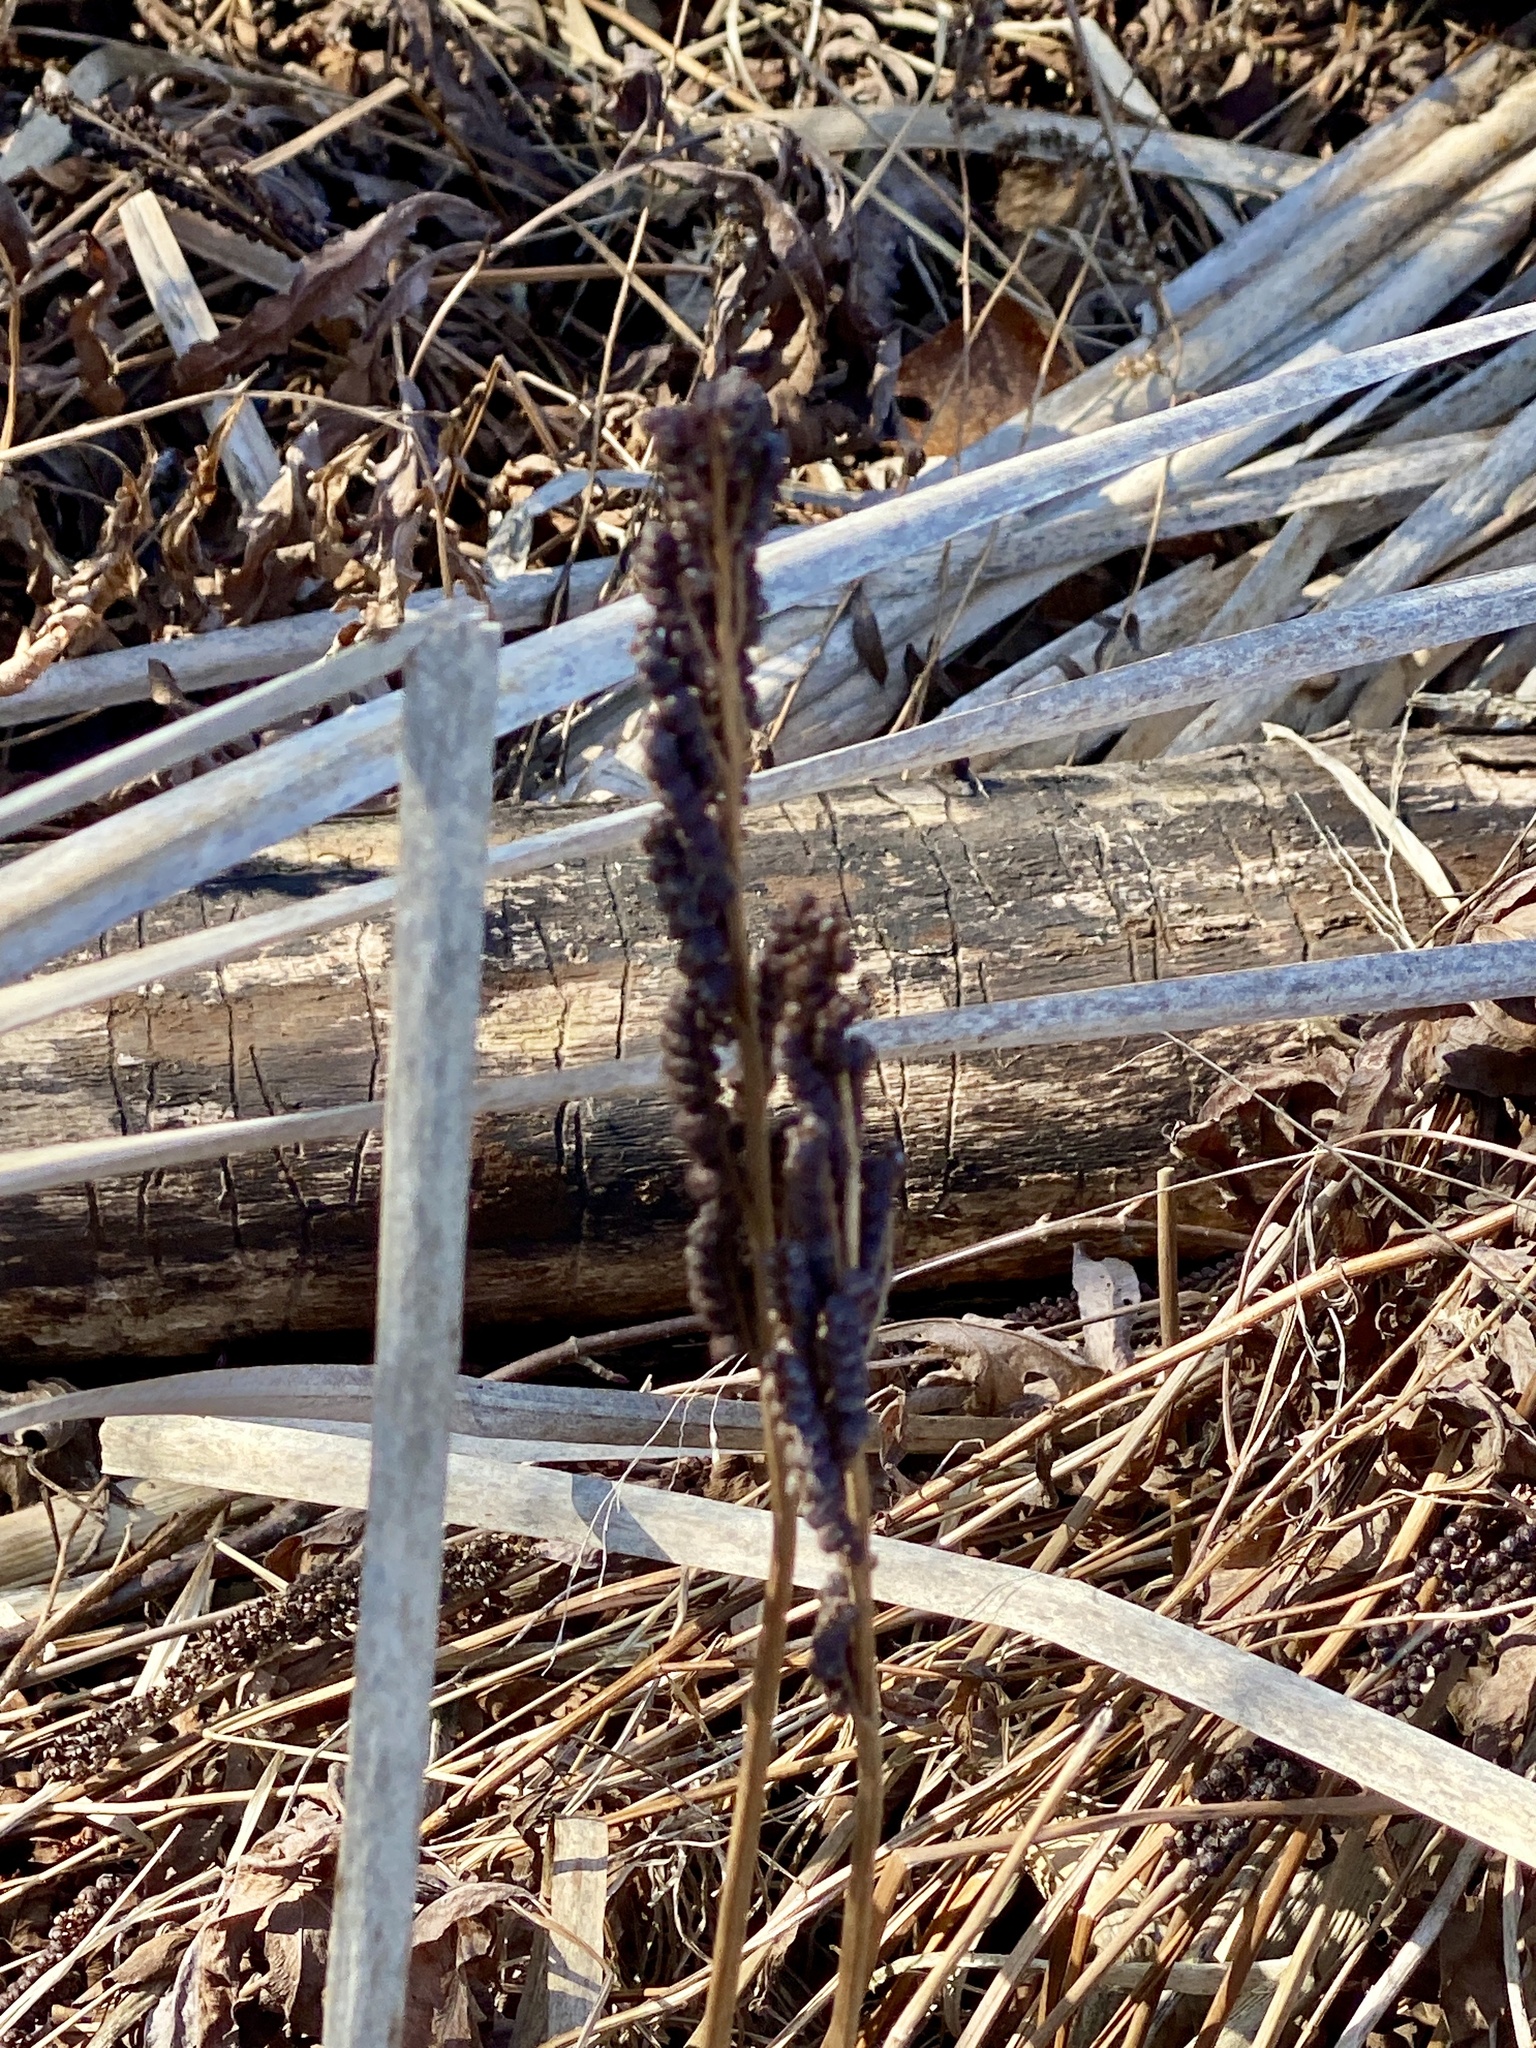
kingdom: Plantae
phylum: Tracheophyta
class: Polypodiopsida
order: Polypodiales
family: Onocleaceae
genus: Onoclea
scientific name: Onoclea sensibilis
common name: Sensitive fern
